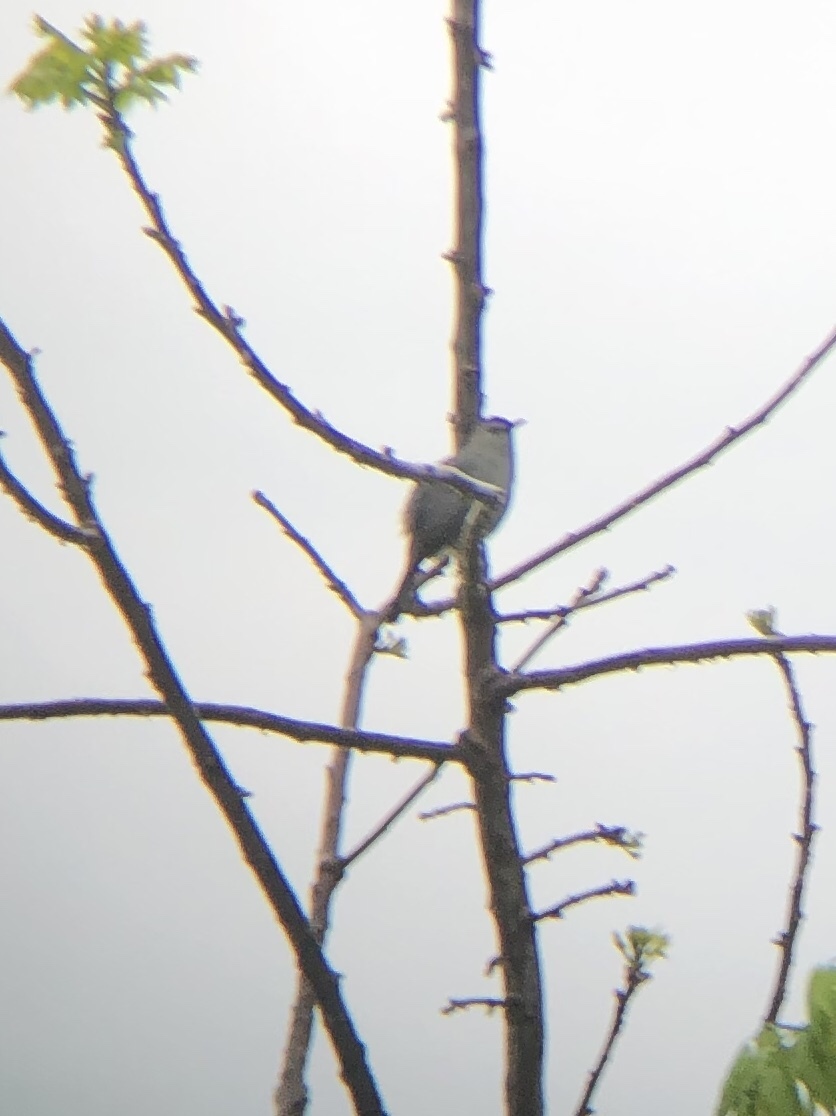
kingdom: Animalia
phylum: Chordata
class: Aves
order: Passeriformes
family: Mimidae
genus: Dumetella
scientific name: Dumetella carolinensis
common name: Gray catbird
